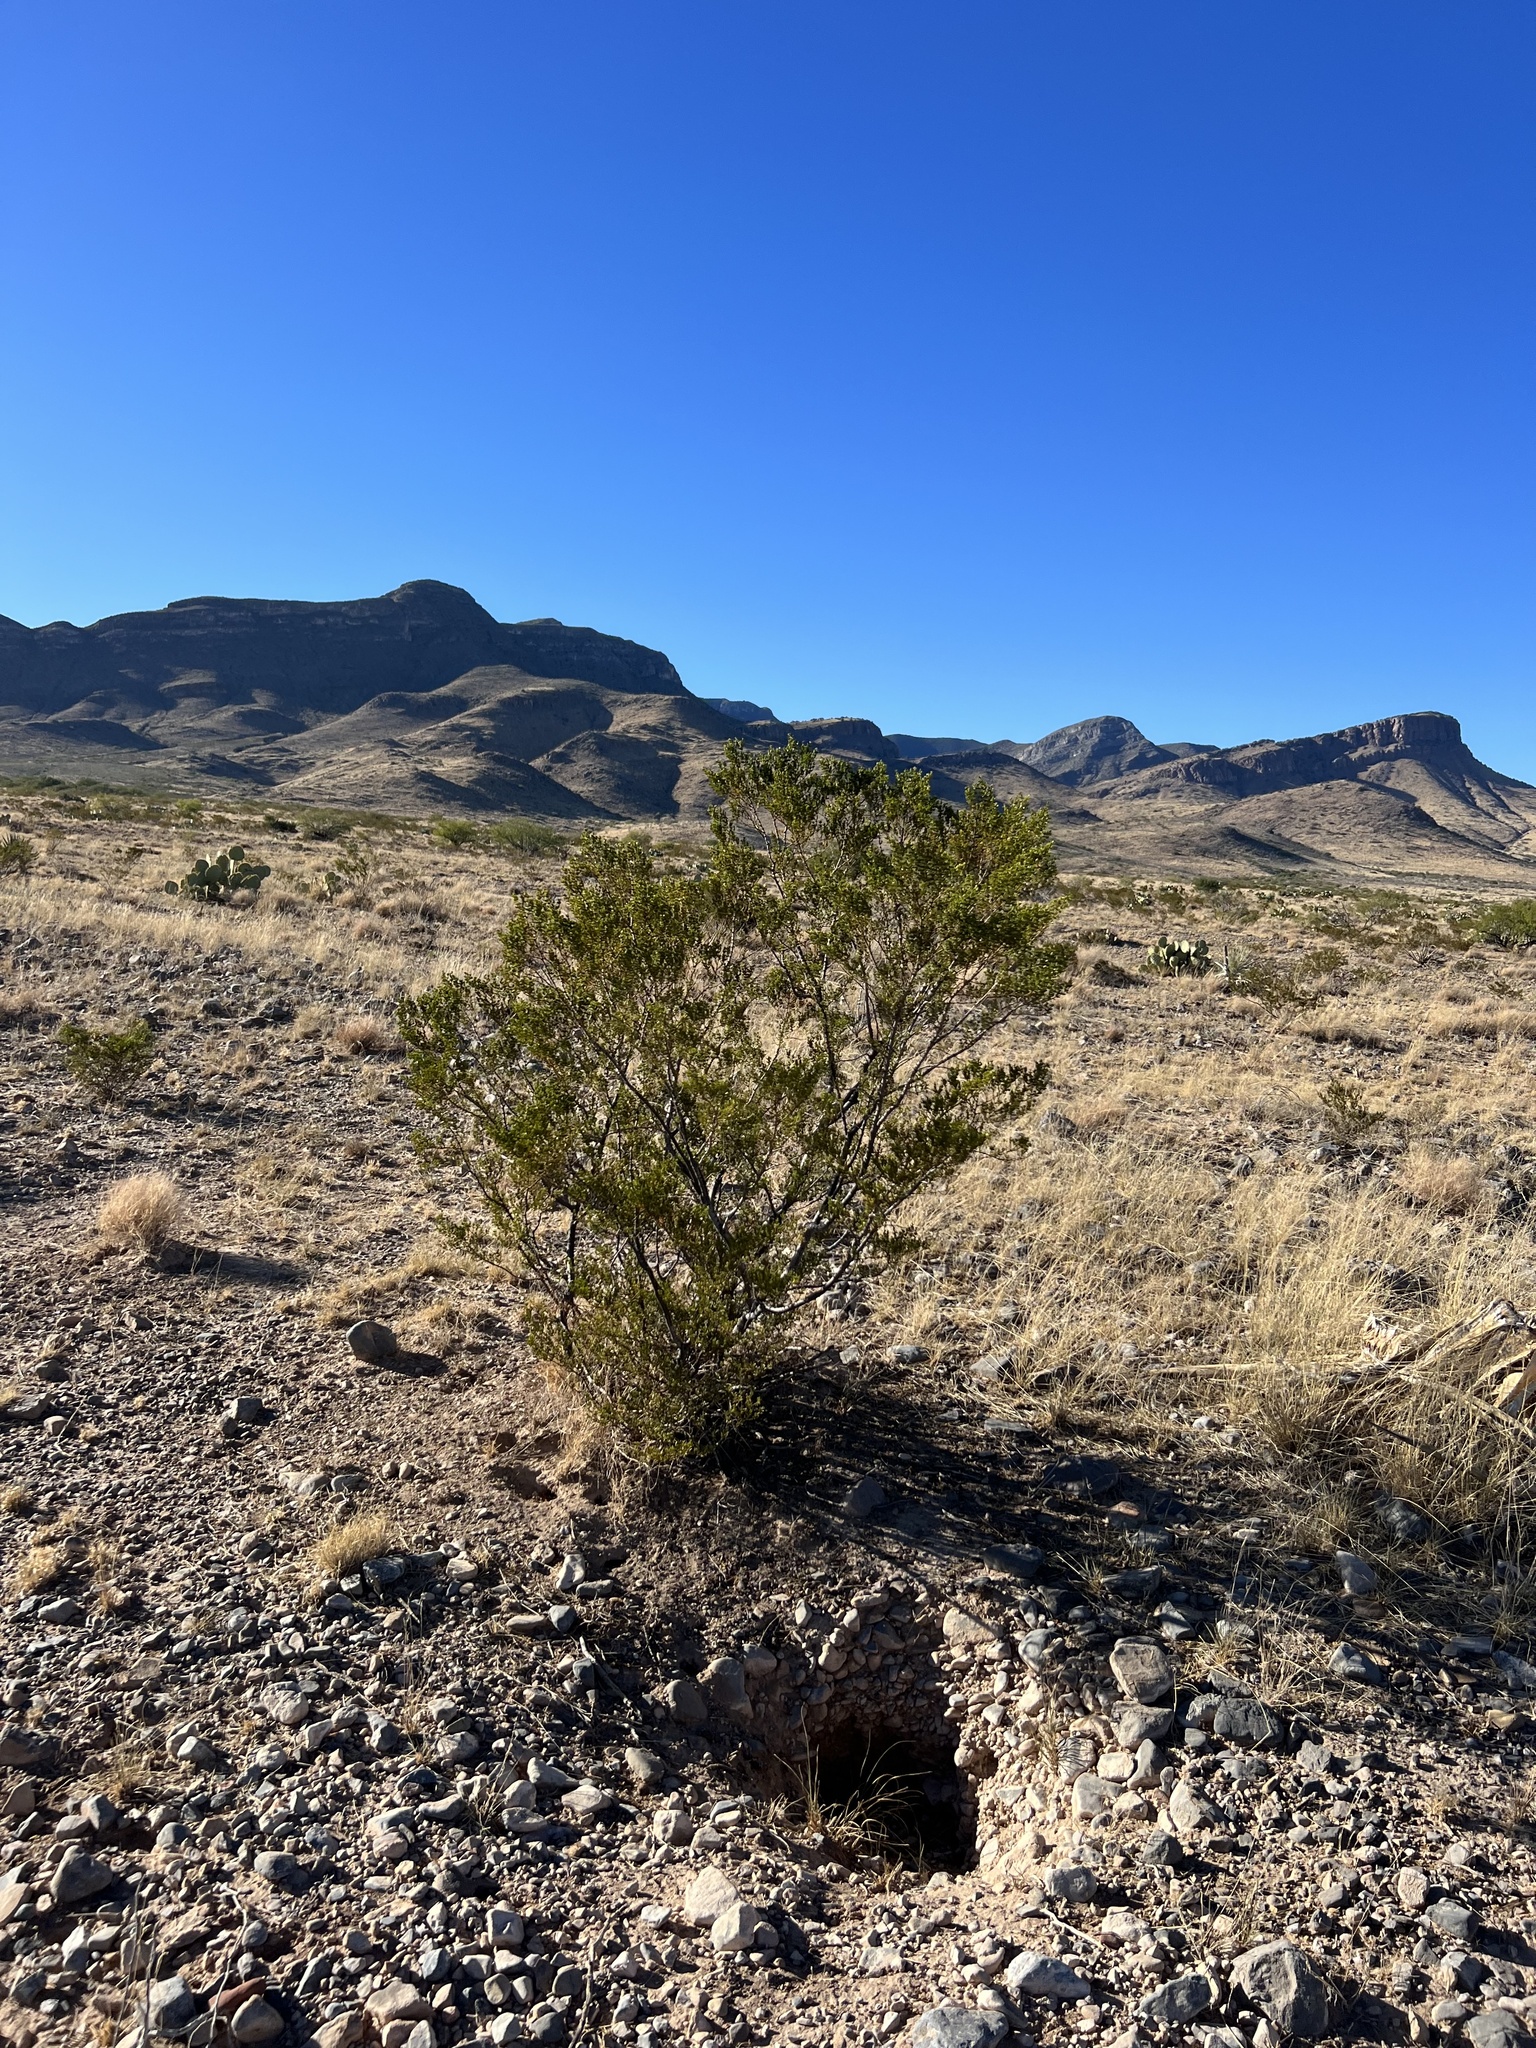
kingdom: Plantae
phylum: Tracheophyta
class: Magnoliopsida
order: Zygophyllales
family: Zygophyllaceae
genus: Larrea
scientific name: Larrea tridentata
